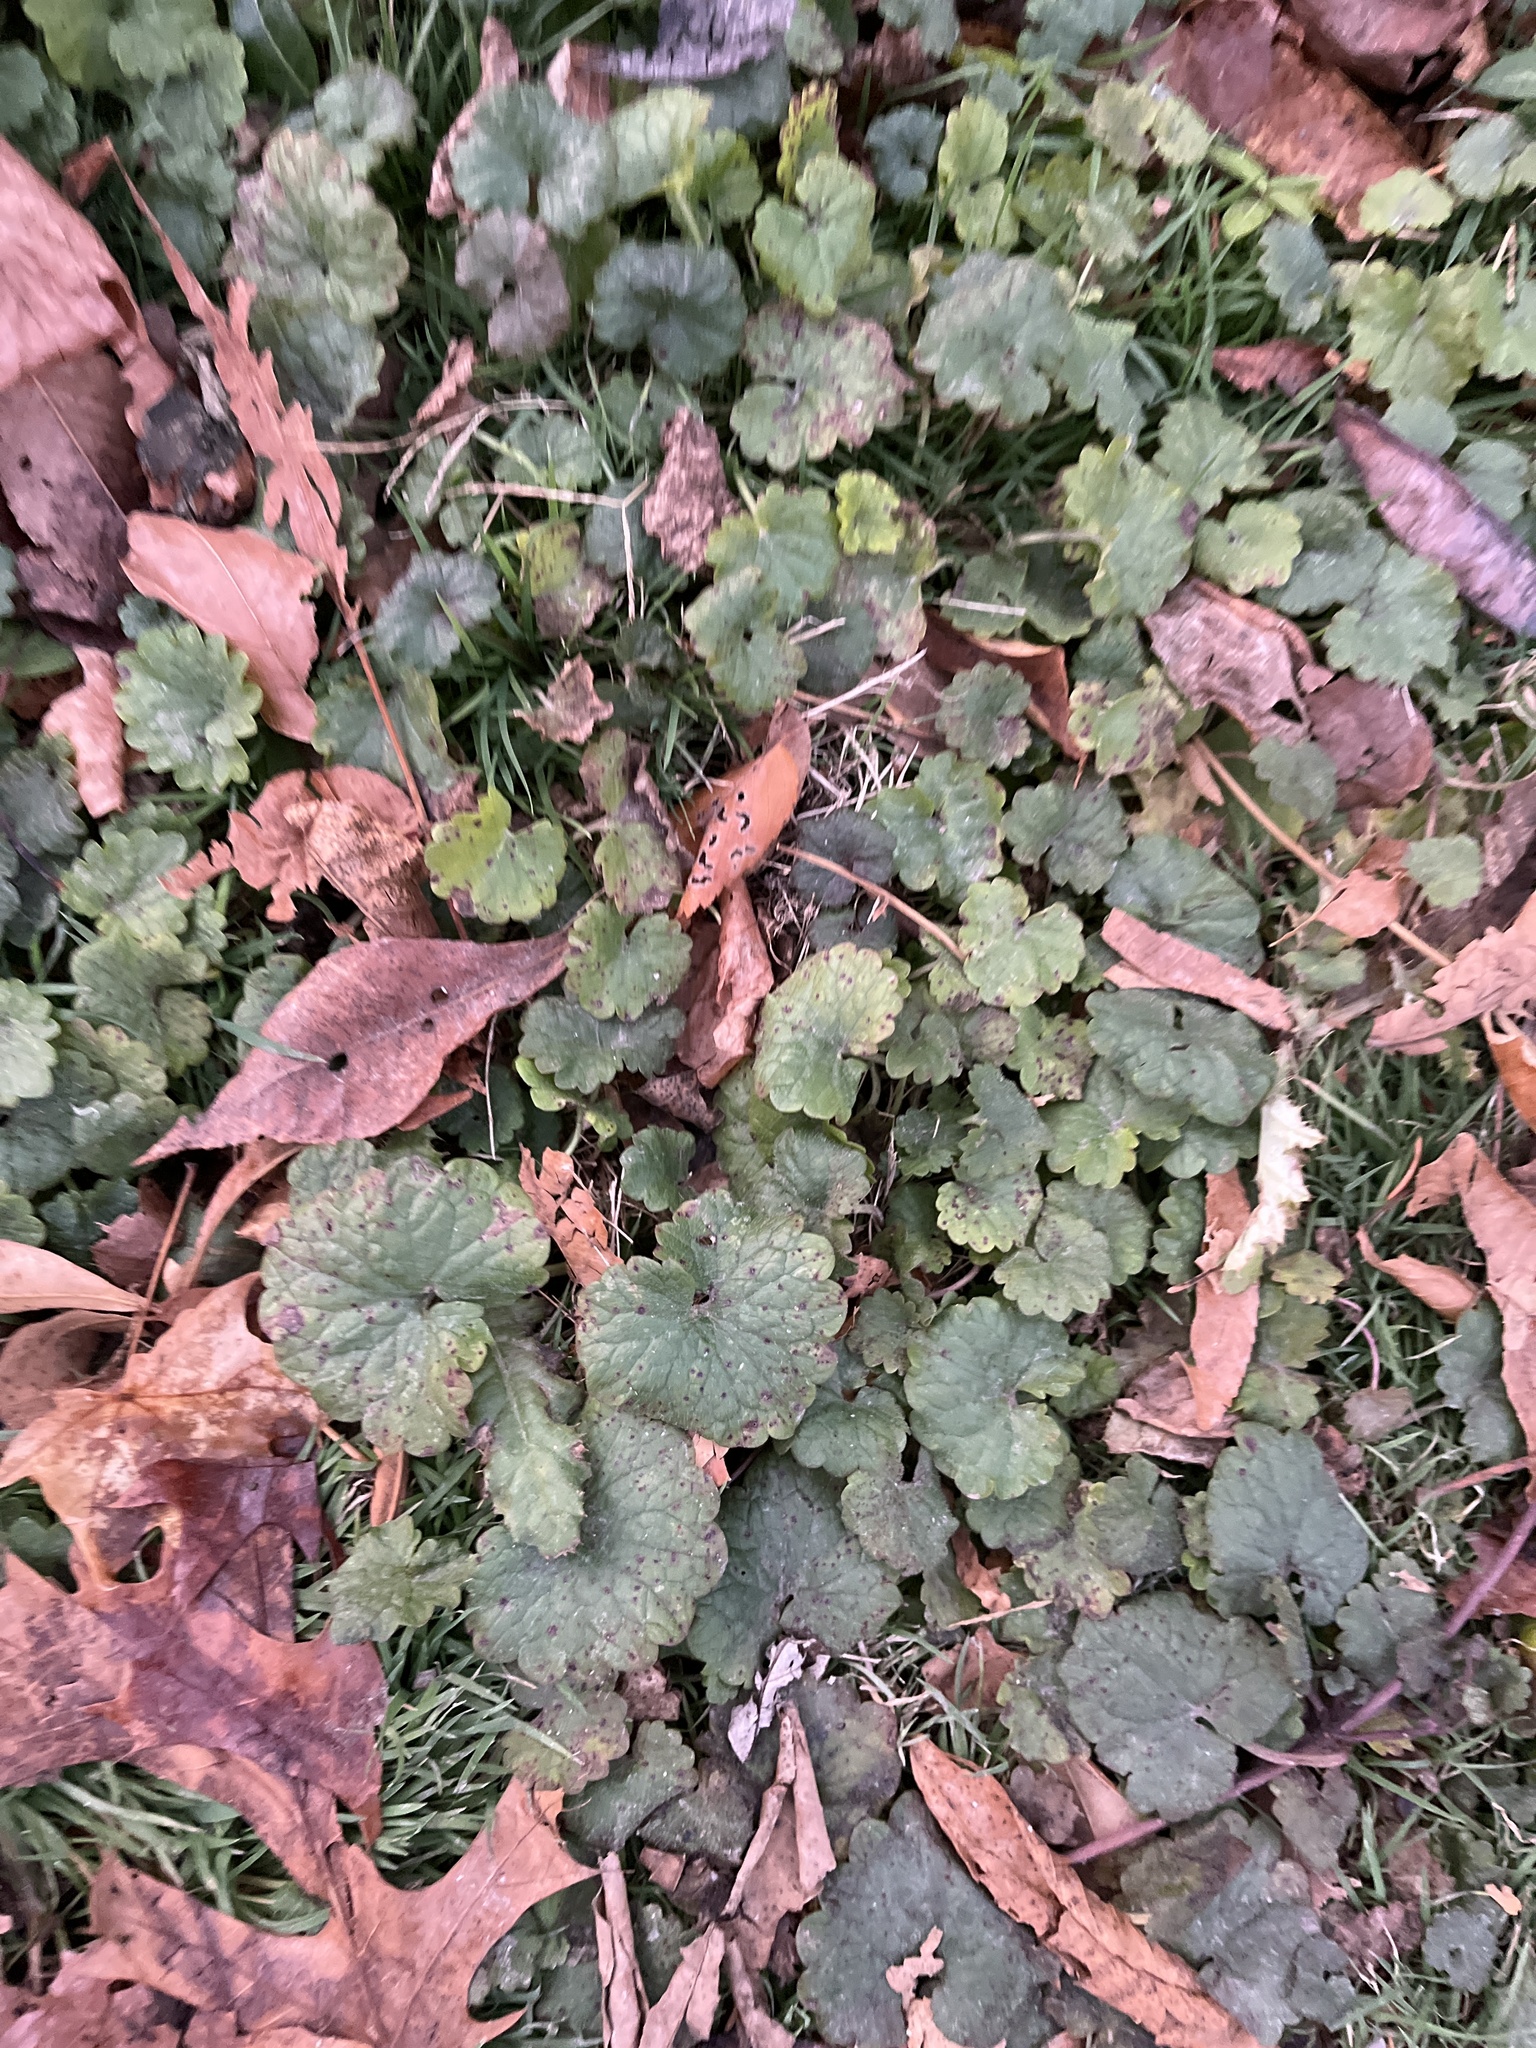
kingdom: Plantae
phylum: Tracheophyta
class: Magnoliopsida
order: Lamiales
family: Lamiaceae
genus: Glechoma
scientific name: Glechoma hederacea
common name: Ground ivy
